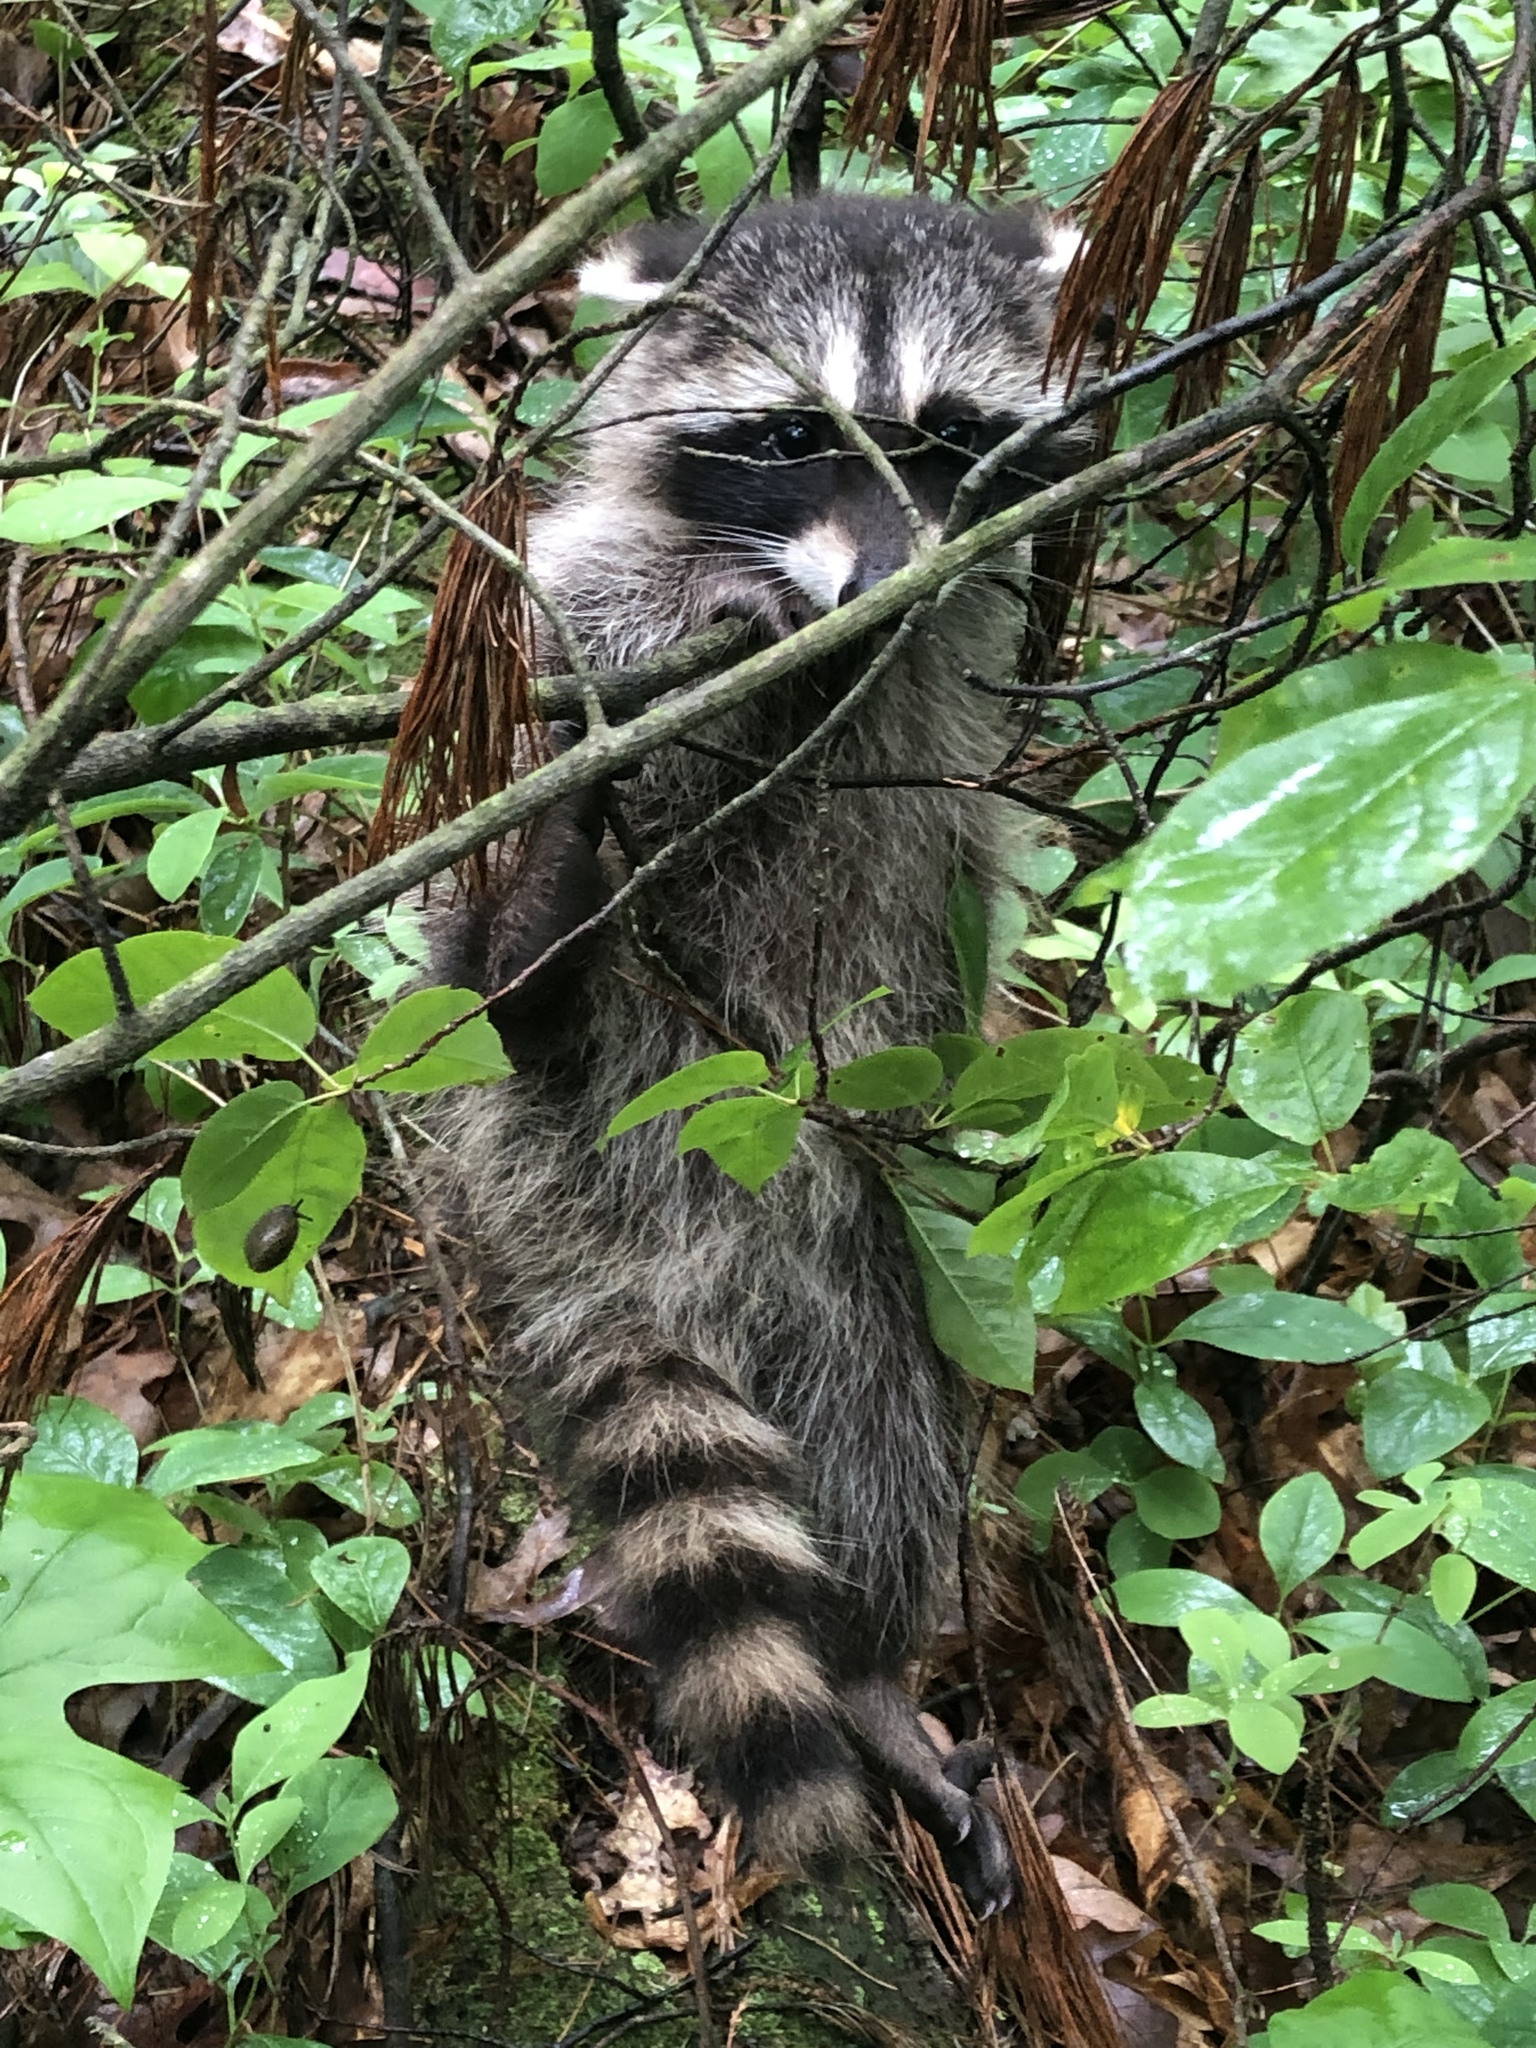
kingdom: Animalia
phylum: Chordata
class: Mammalia
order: Carnivora
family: Procyonidae
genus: Procyon
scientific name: Procyon lotor
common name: Raccoon
